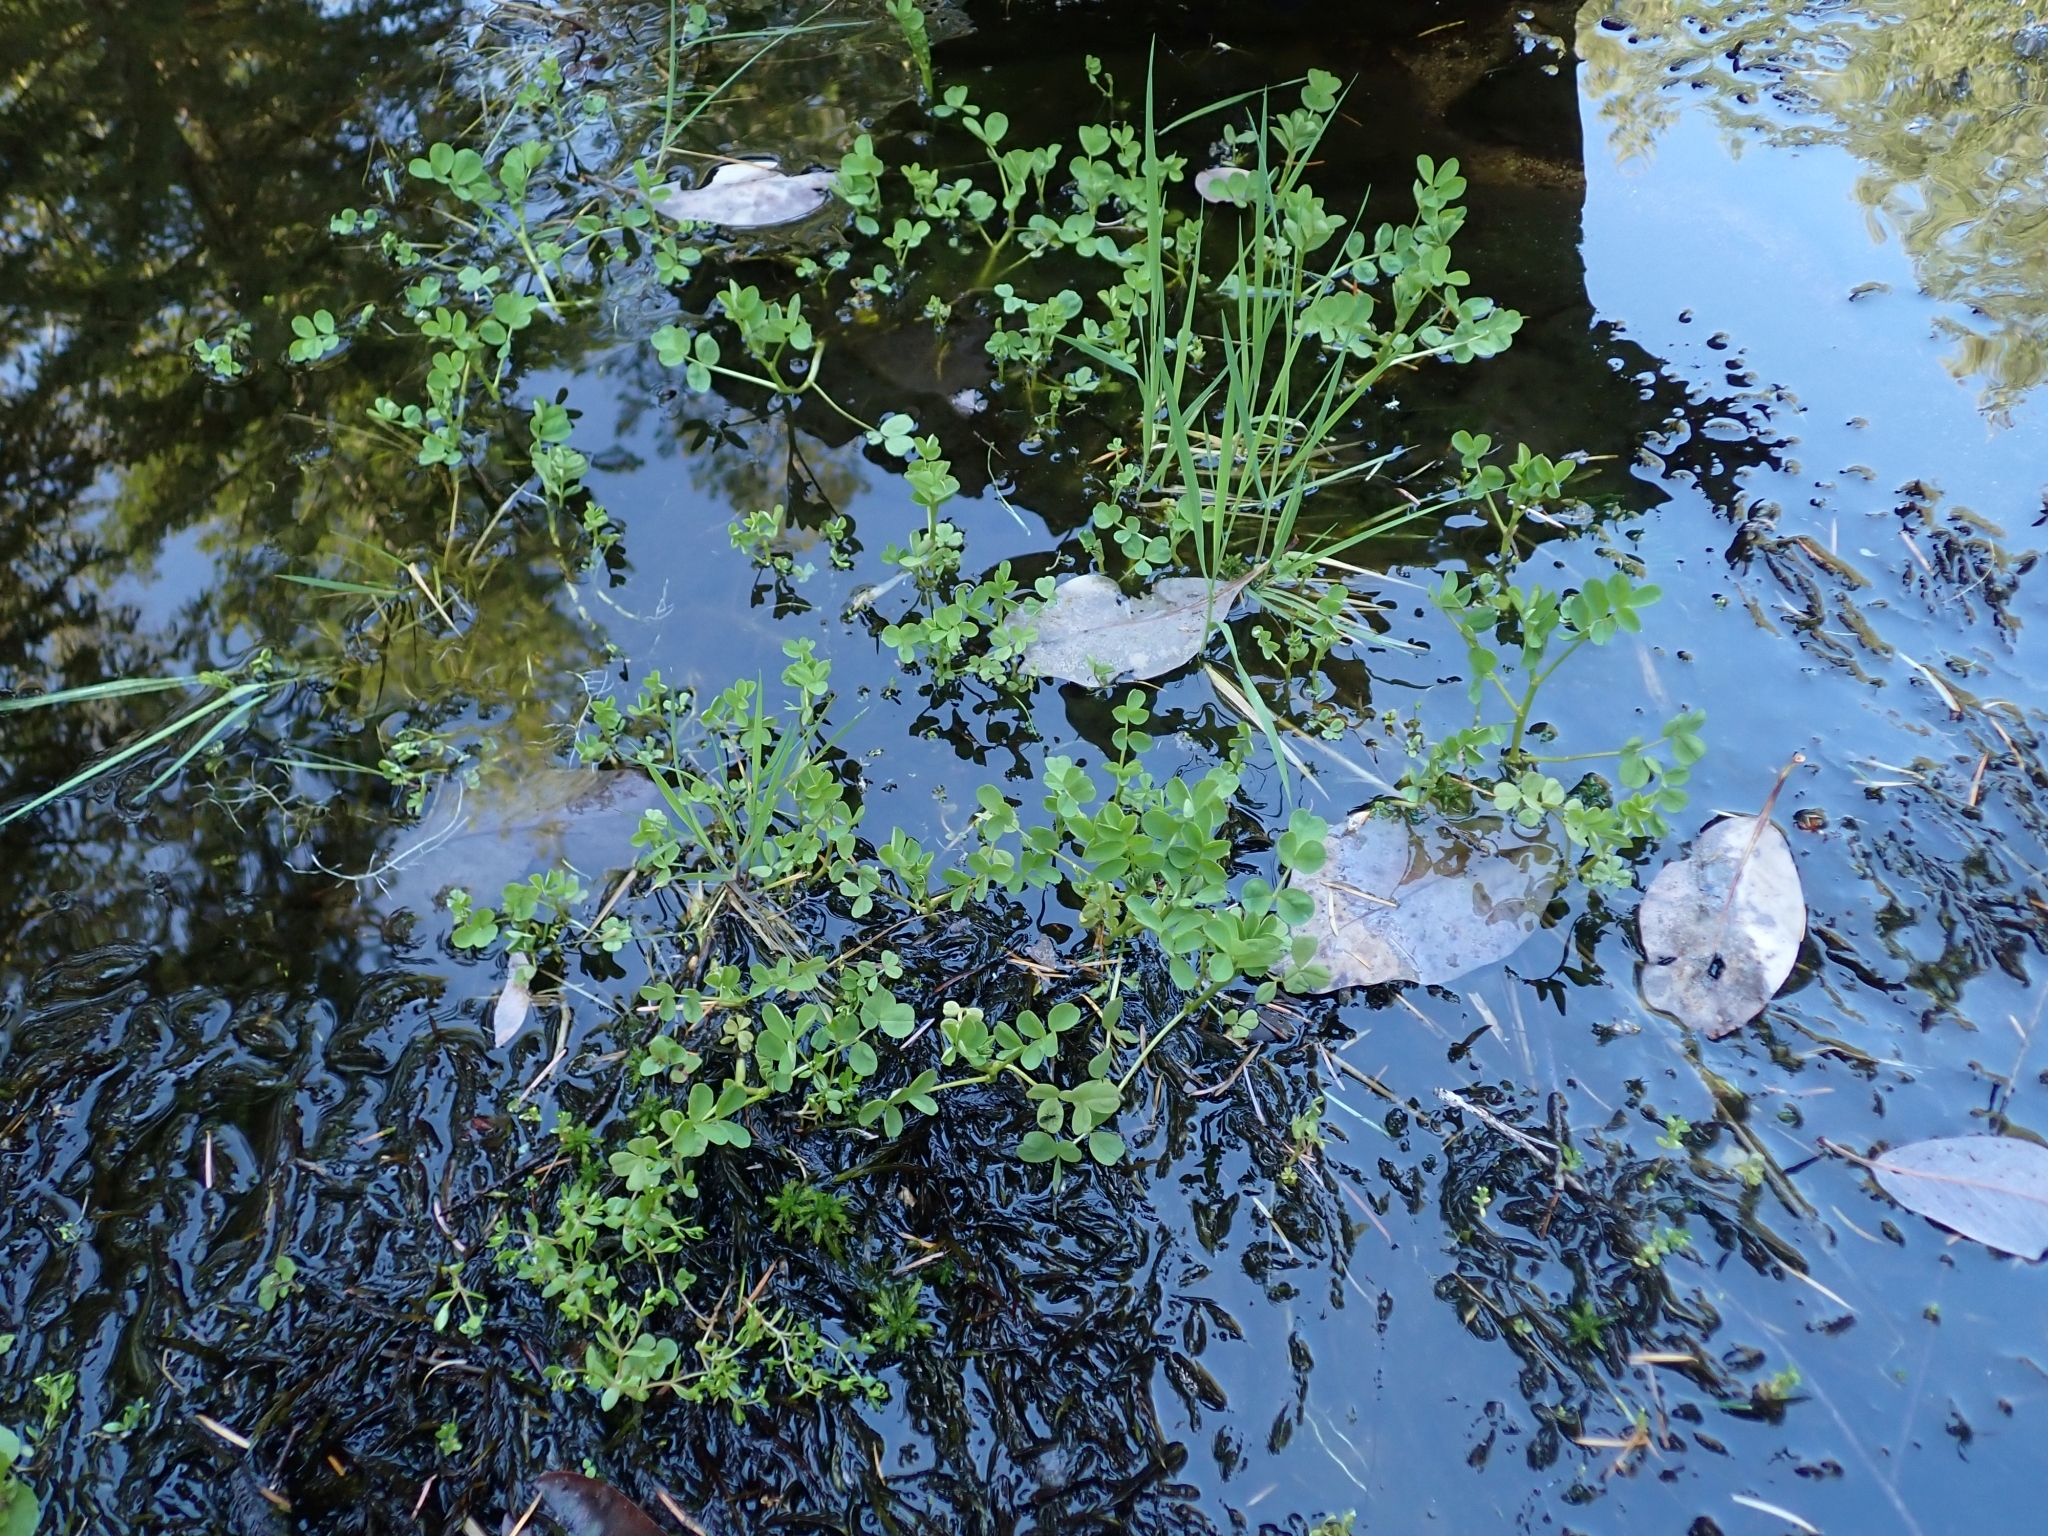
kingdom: Plantae
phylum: Tracheophyta
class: Magnoliopsida
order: Fabales
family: Fabaceae
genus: Hosackia
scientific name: Hosackia pinnata
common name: Bog bird's-foot trefoil
